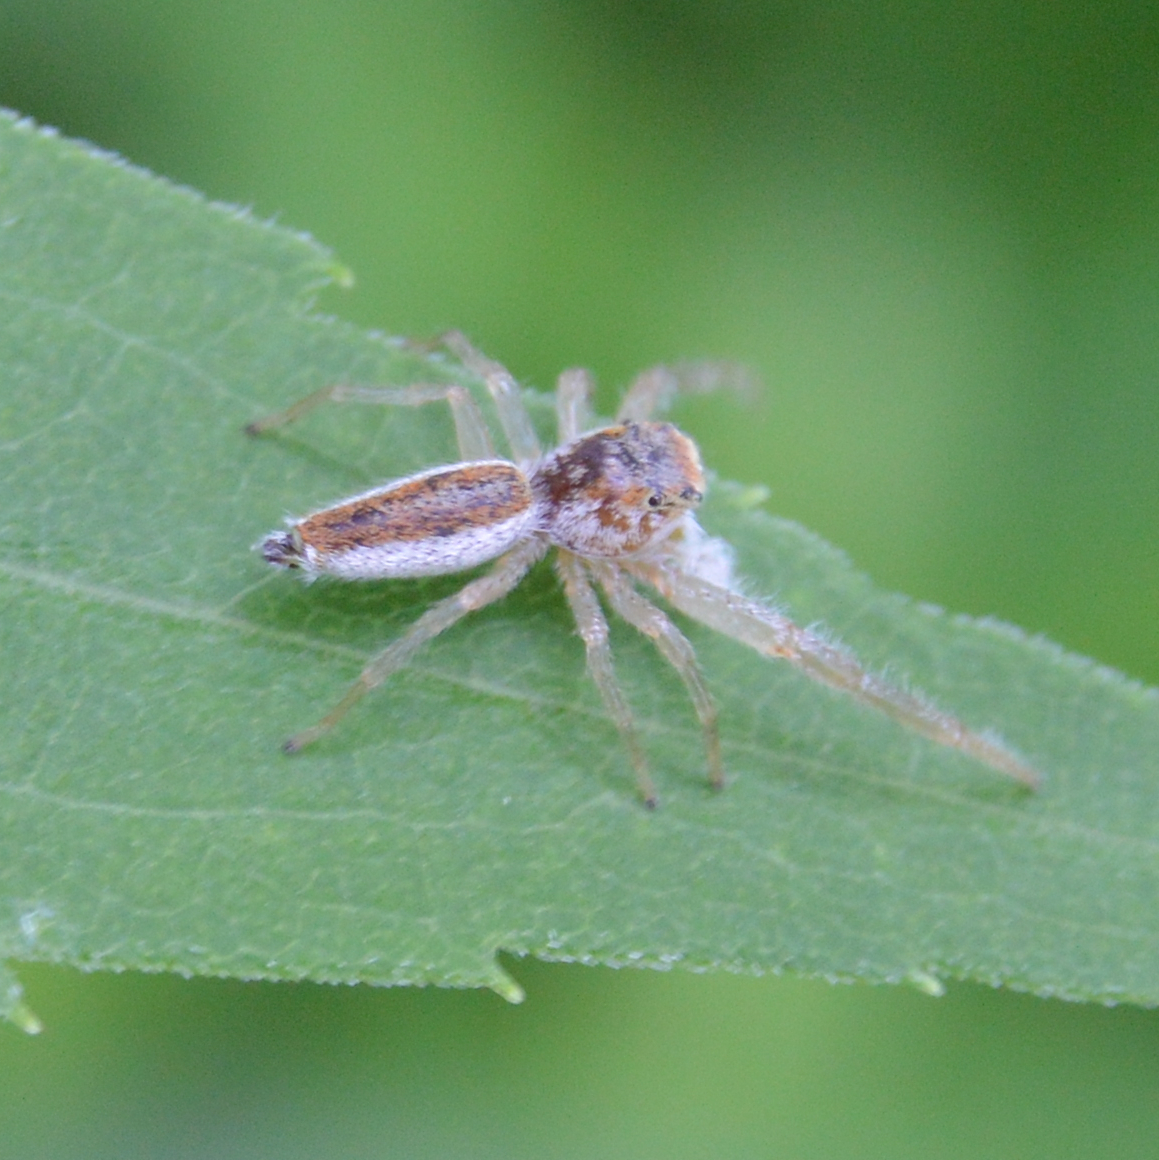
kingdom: Animalia
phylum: Arthropoda
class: Arachnida
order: Araneae
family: Salticidae
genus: Hentzia
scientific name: Hentzia mitrata
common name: White-jawed jumping spider
